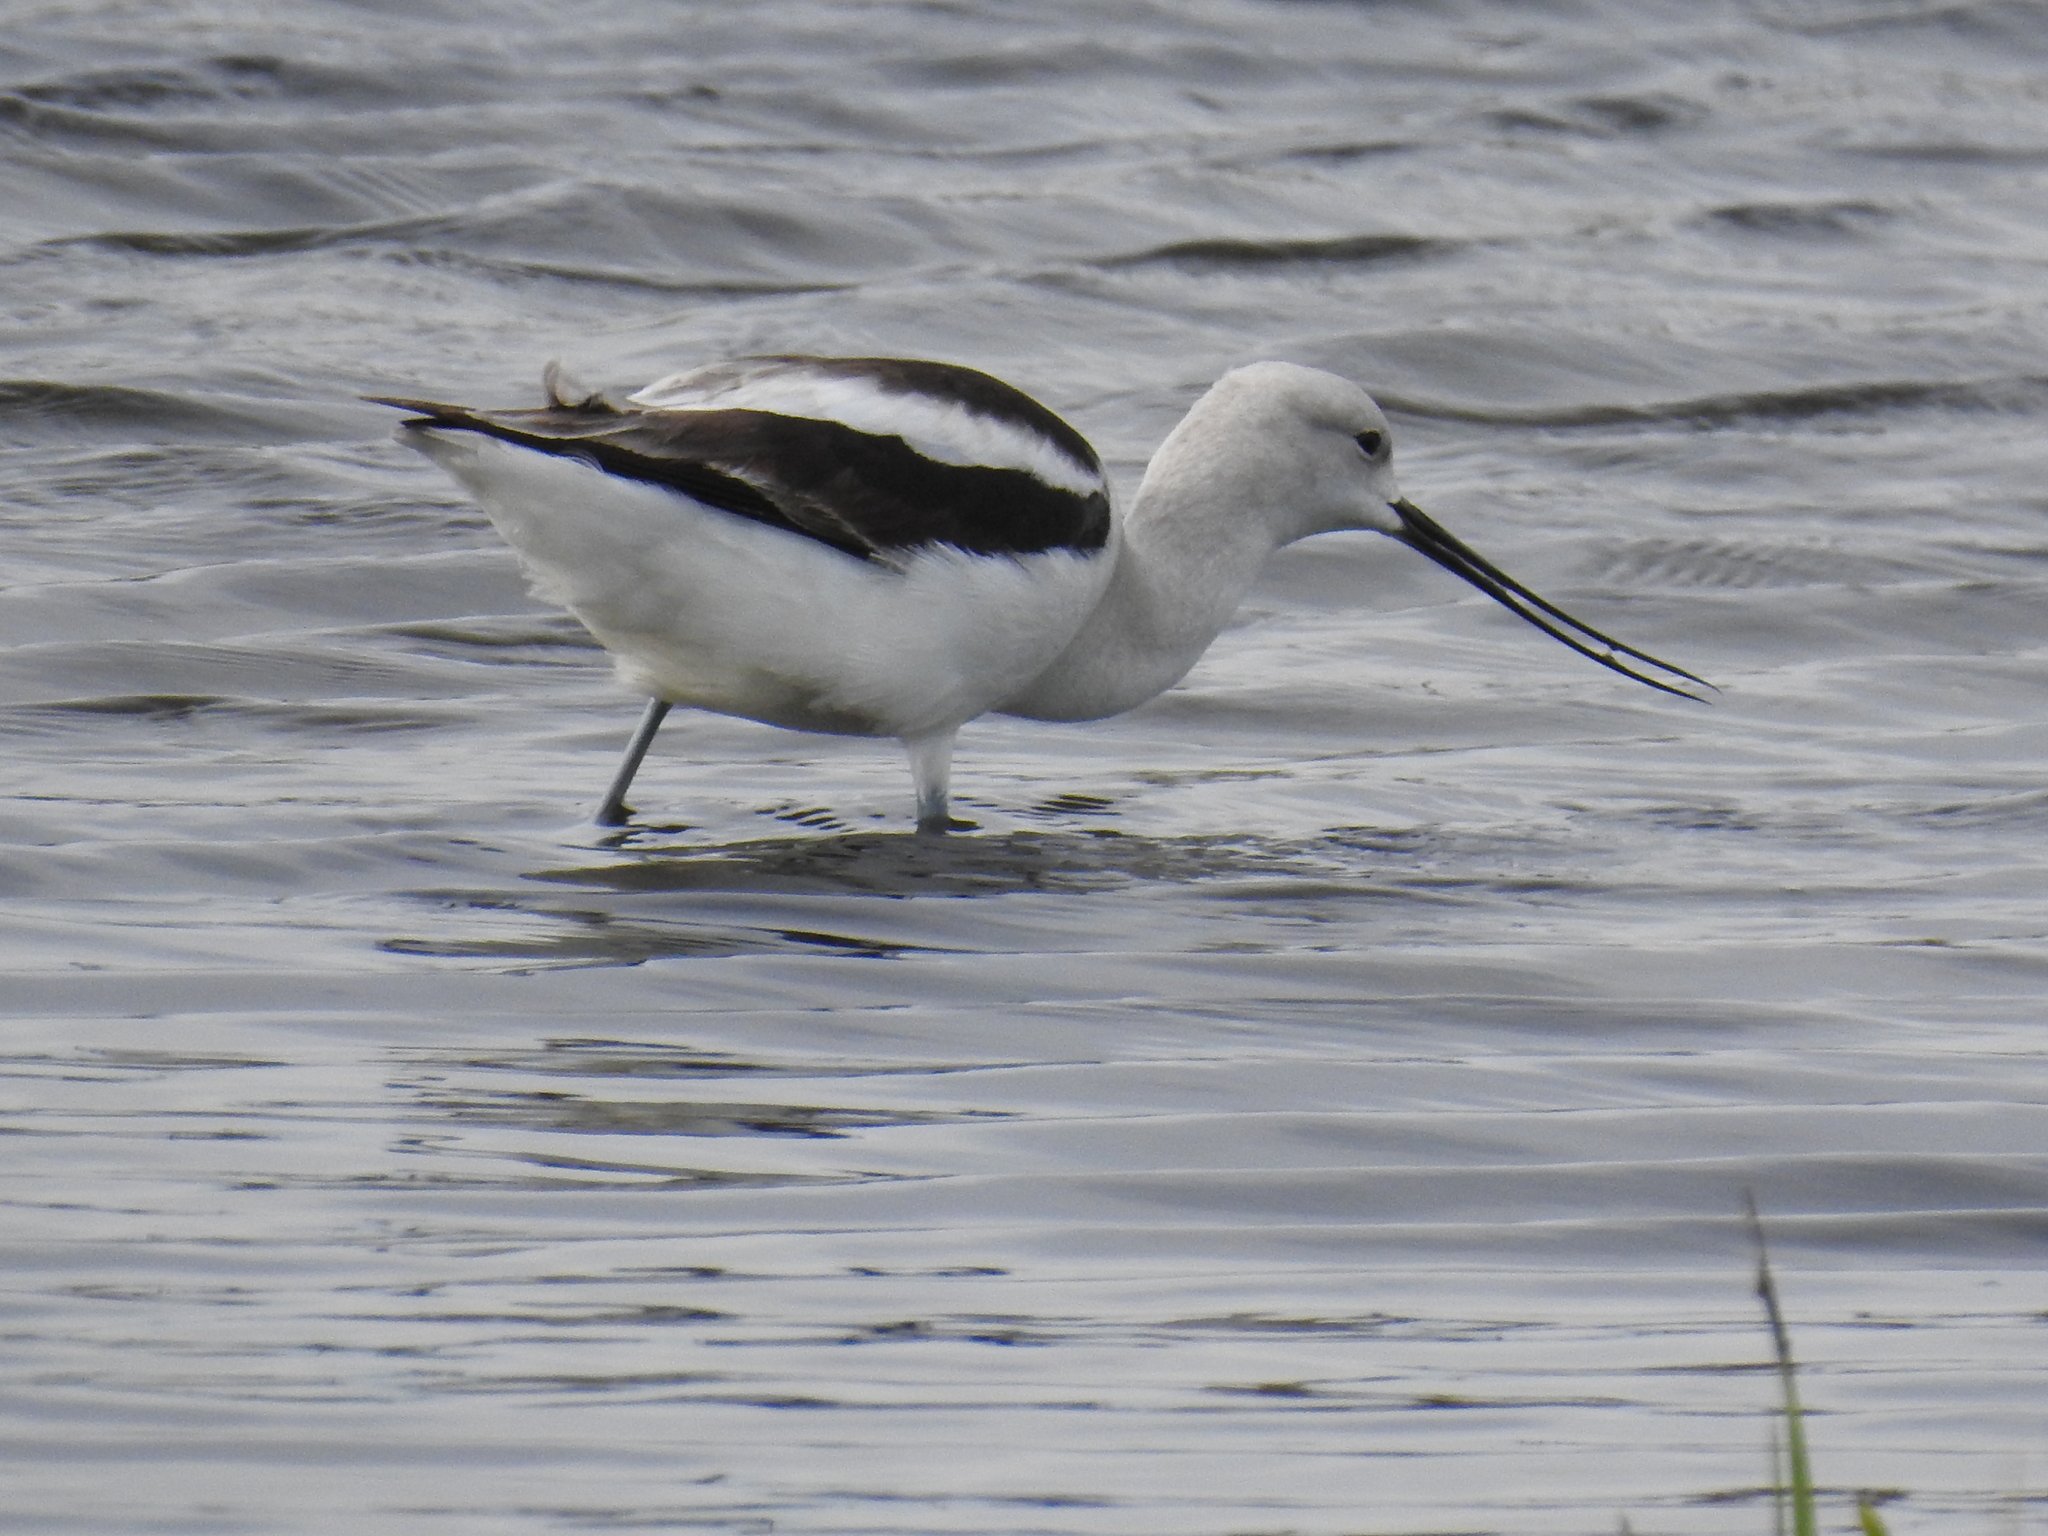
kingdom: Animalia
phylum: Chordata
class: Aves
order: Charadriiformes
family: Recurvirostridae
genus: Recurvirostra
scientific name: Recurvirostra americana
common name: American avocet
